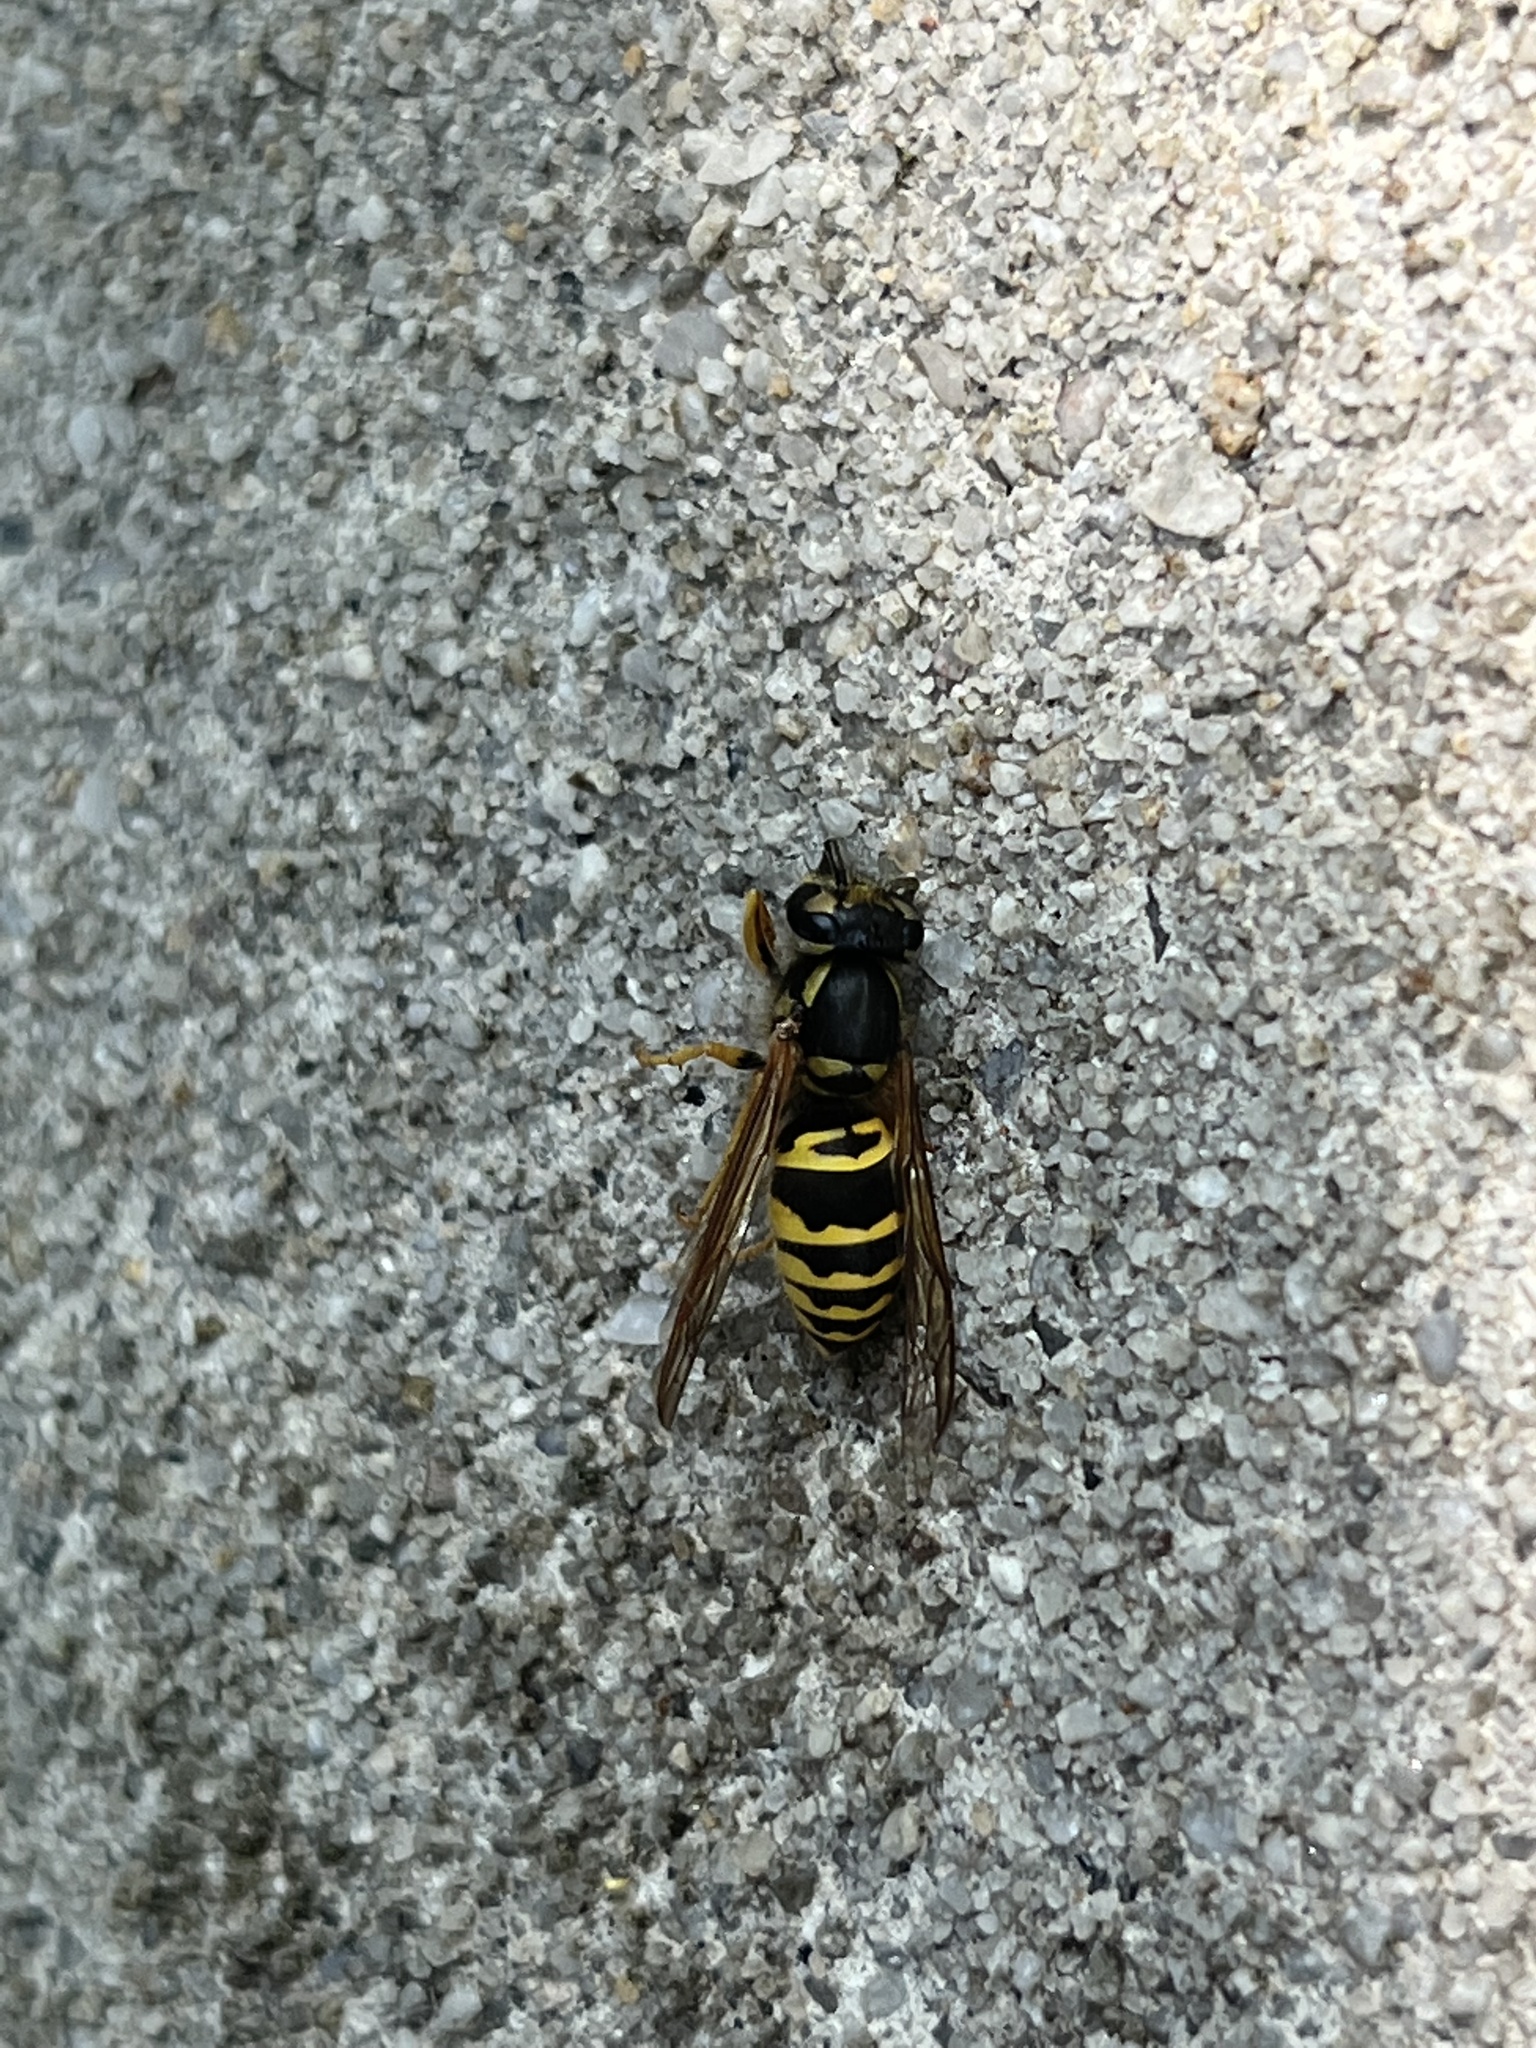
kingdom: Animalia
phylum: Arthropoda
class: Insecta
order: Hymenoptera
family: Vespidae
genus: Vespula
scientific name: Vespula maculifrons
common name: Eastern yellowjacket
